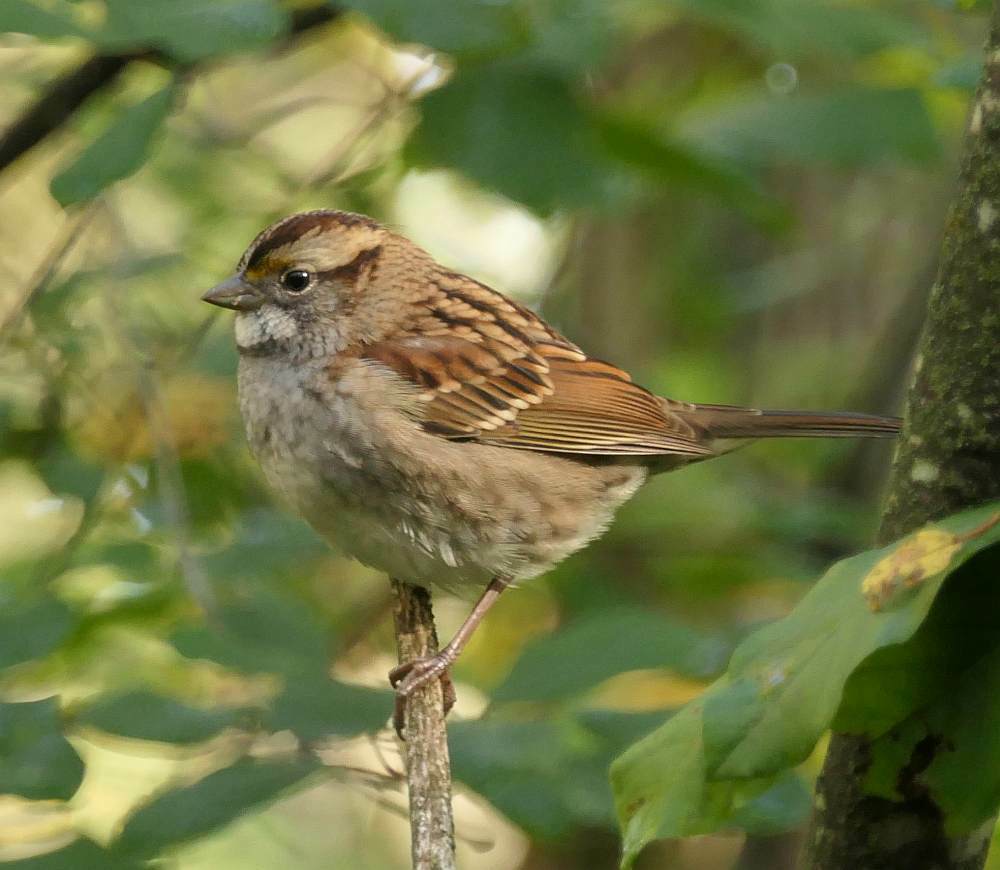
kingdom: Animalia
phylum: Chordata
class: Aves
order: Passeriformes
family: Passerellidae
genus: Zonotrichia
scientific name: Zonotrichia albicollis
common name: White-throated sparrow
